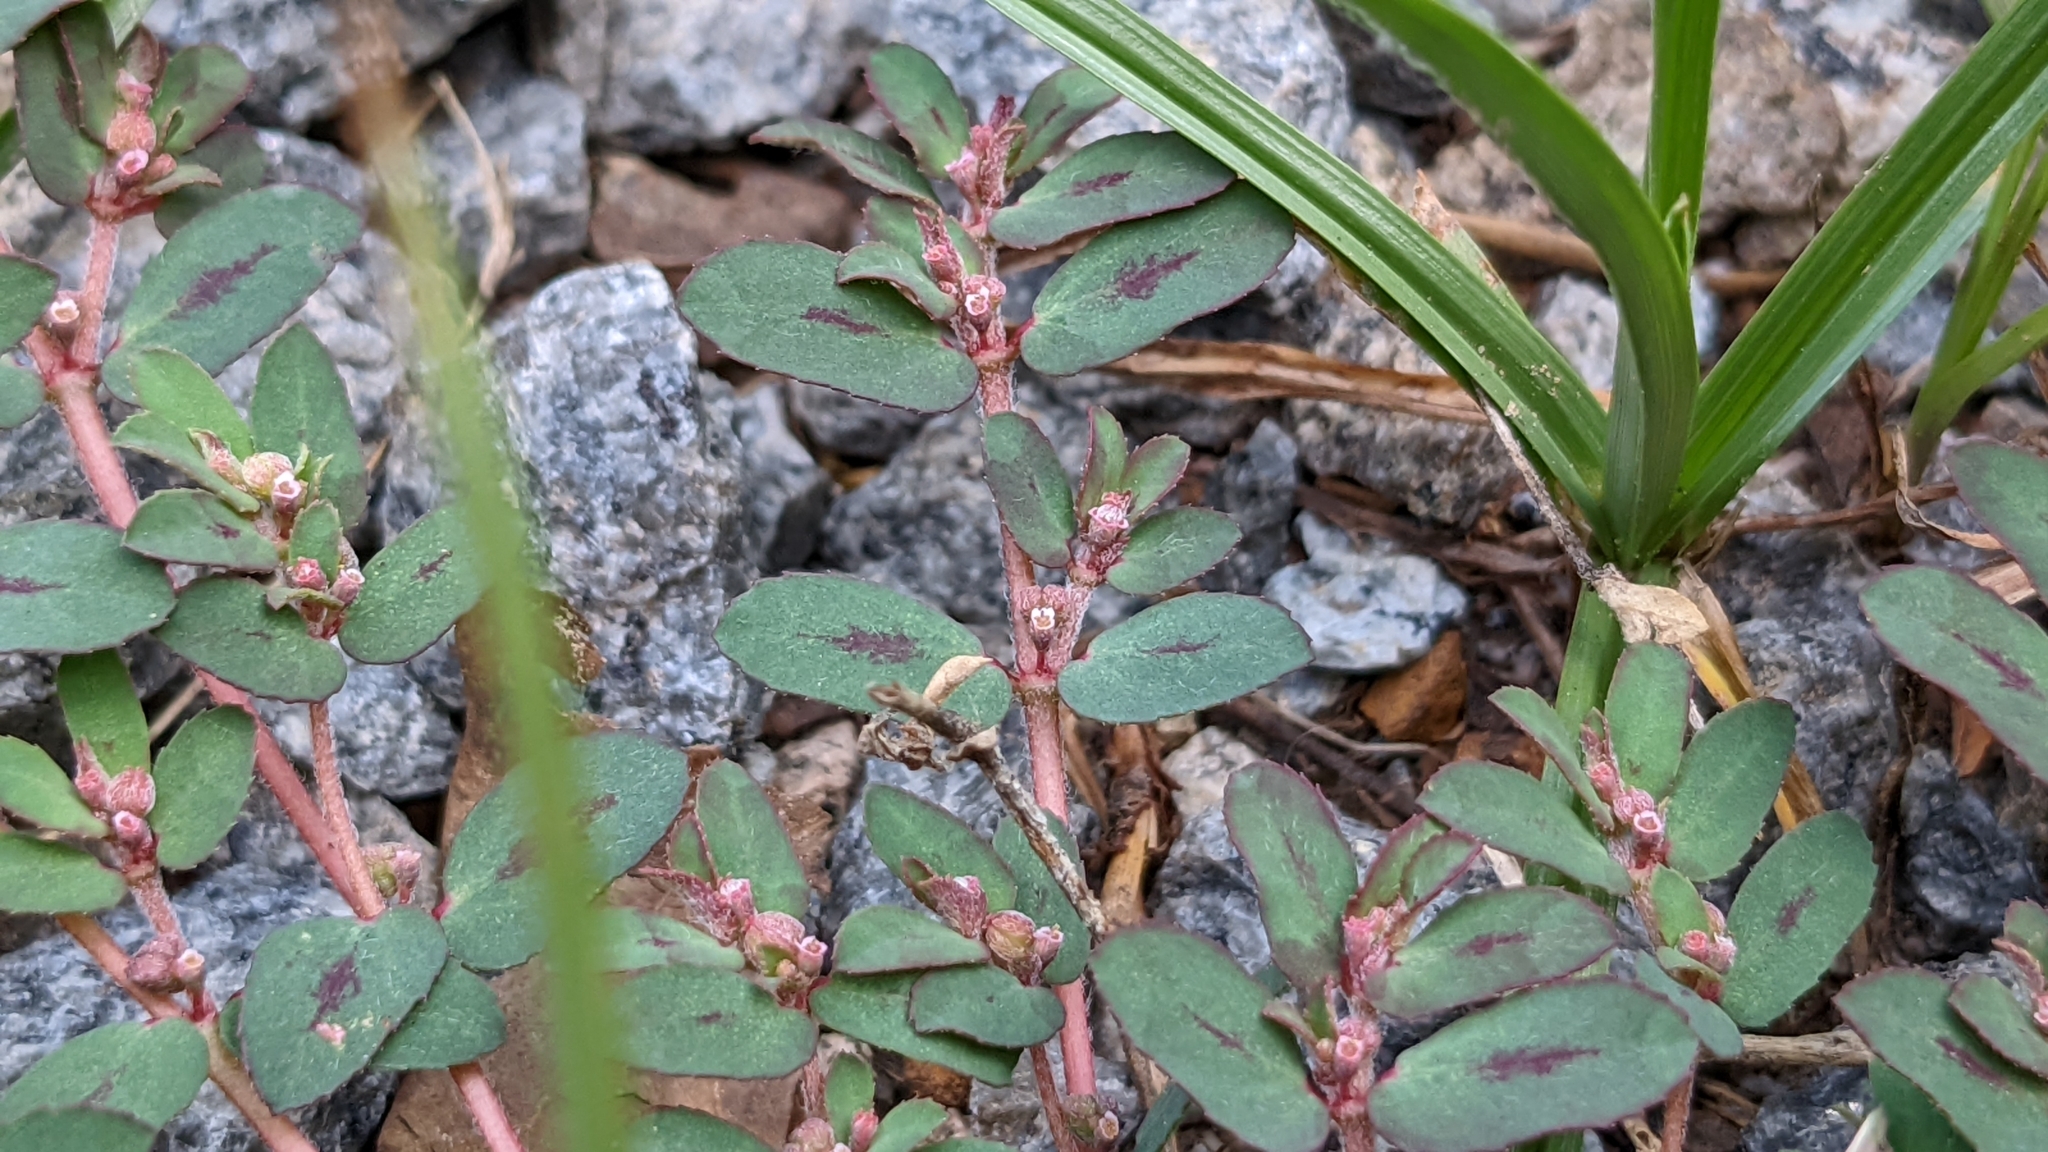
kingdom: Plantae
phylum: Tracheophyta
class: Magnoliopsida
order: Malpighiales
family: Euphorbiaceae
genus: Euphorbia
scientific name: Euphorbia maculata
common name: Spotted spurge
